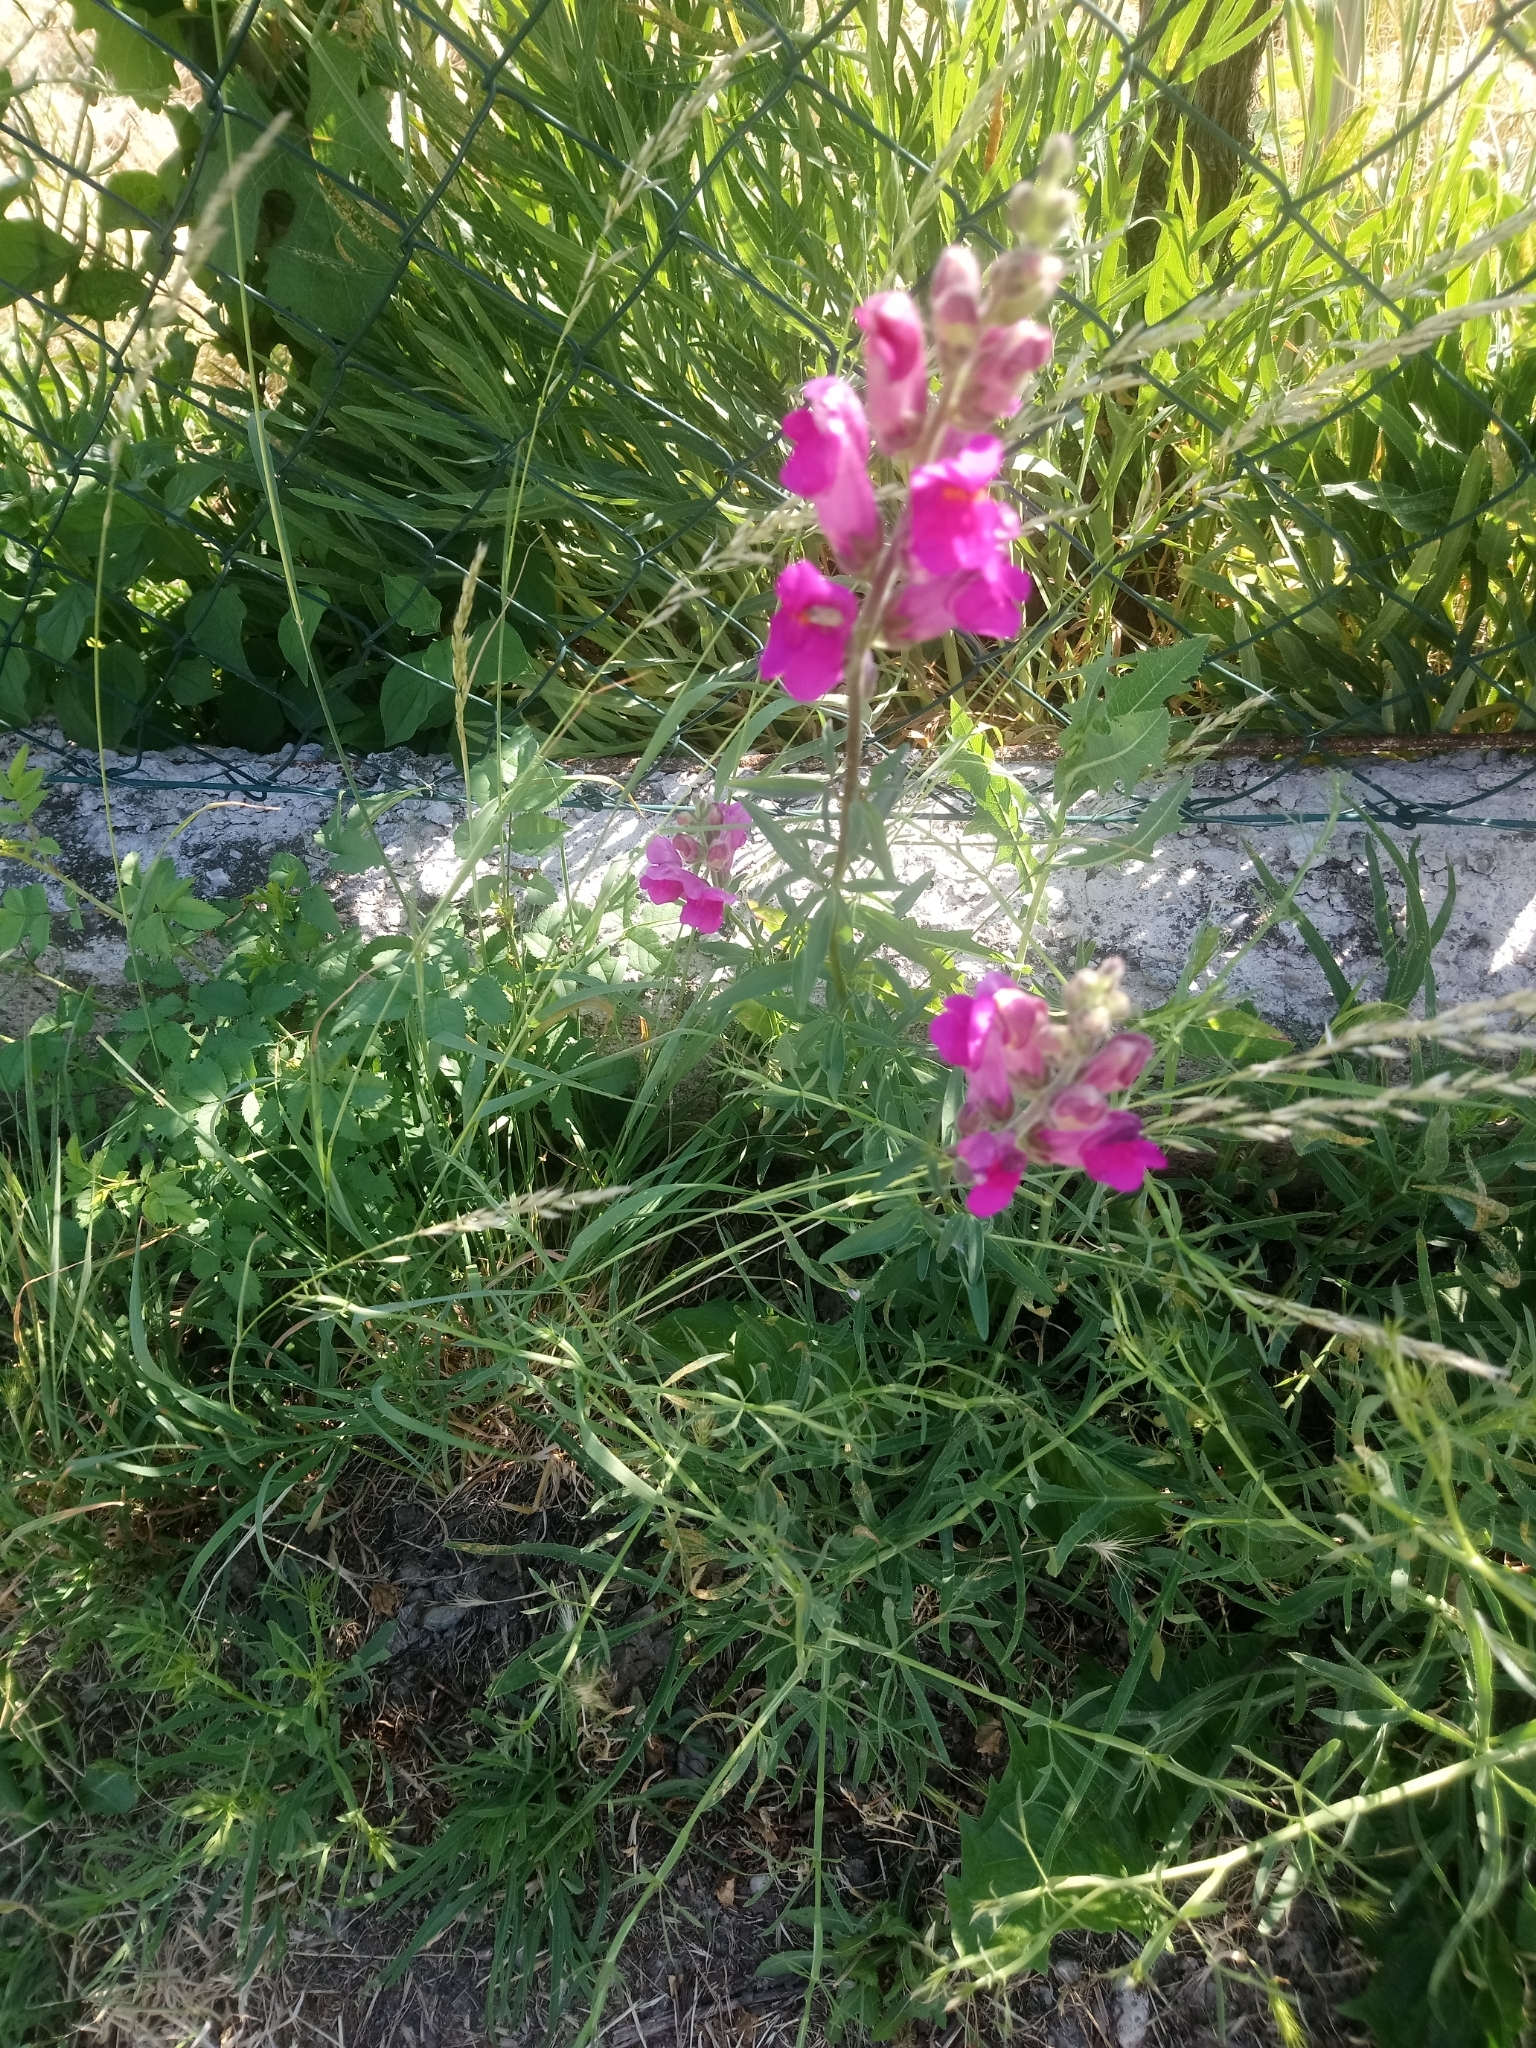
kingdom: Plantae
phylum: Tracheophyta
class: Magnoliopsida
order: Lamiales
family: Plantaginaceae
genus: Antirrhinum
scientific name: Antirrhinum majus
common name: Snapdragon
